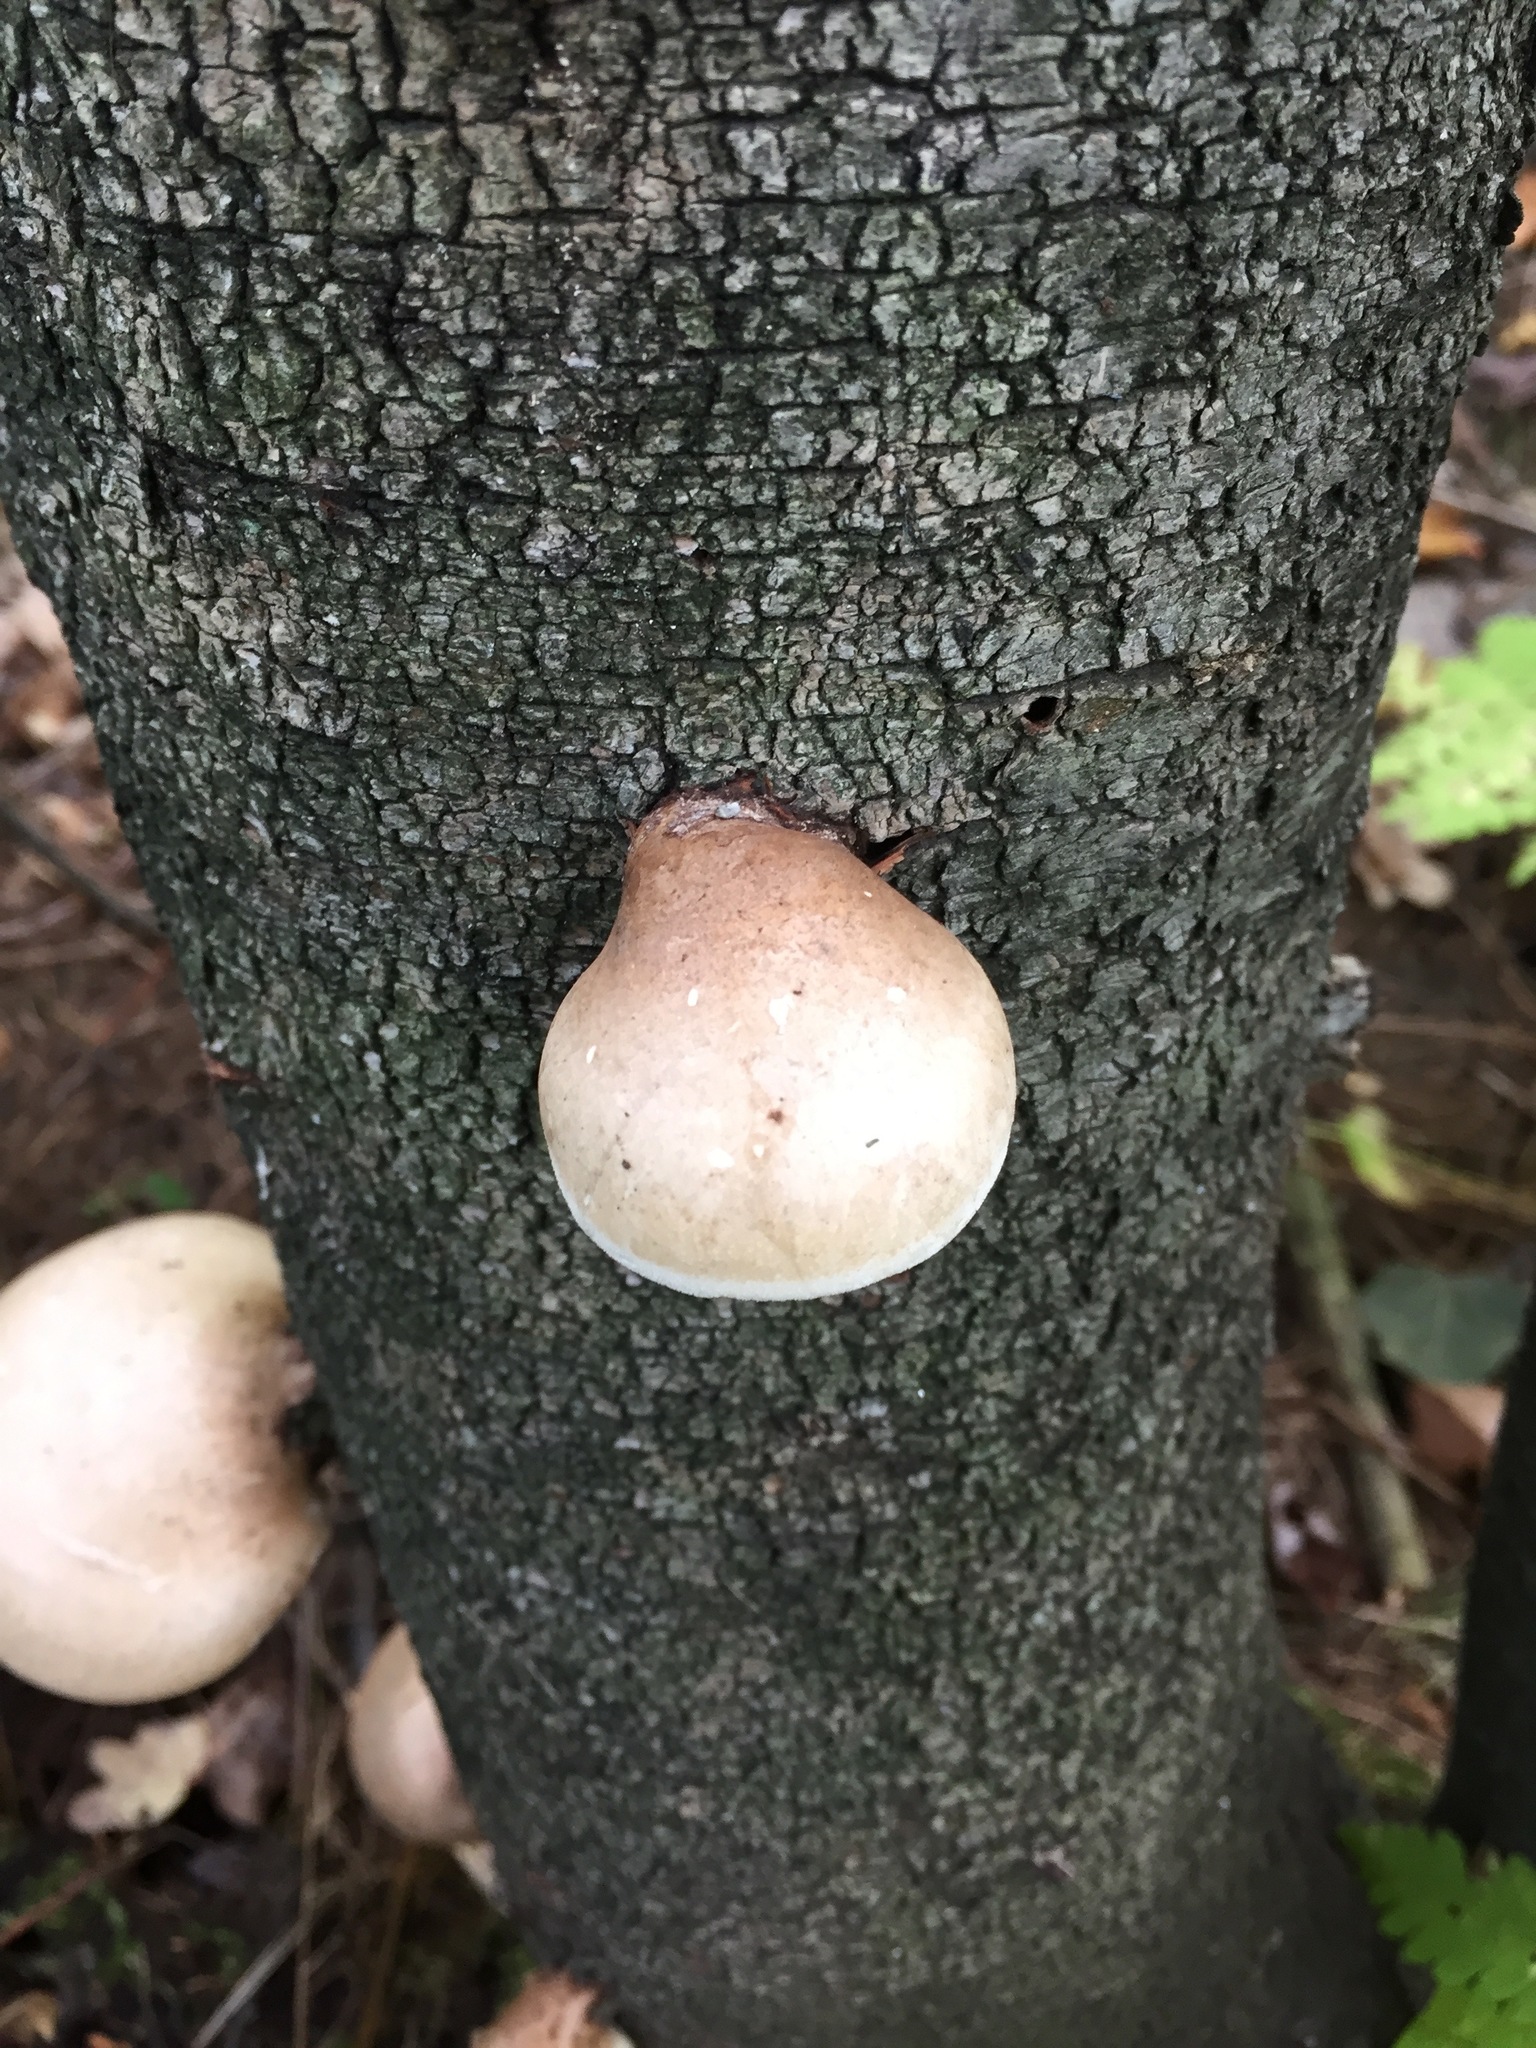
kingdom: Fungi
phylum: Basidiomycota
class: Agaricomycetes
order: Polyporales
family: Fomitopsidaceae
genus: Fomitopsis
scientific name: Fomitopsis betulina
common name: Birch polypore
